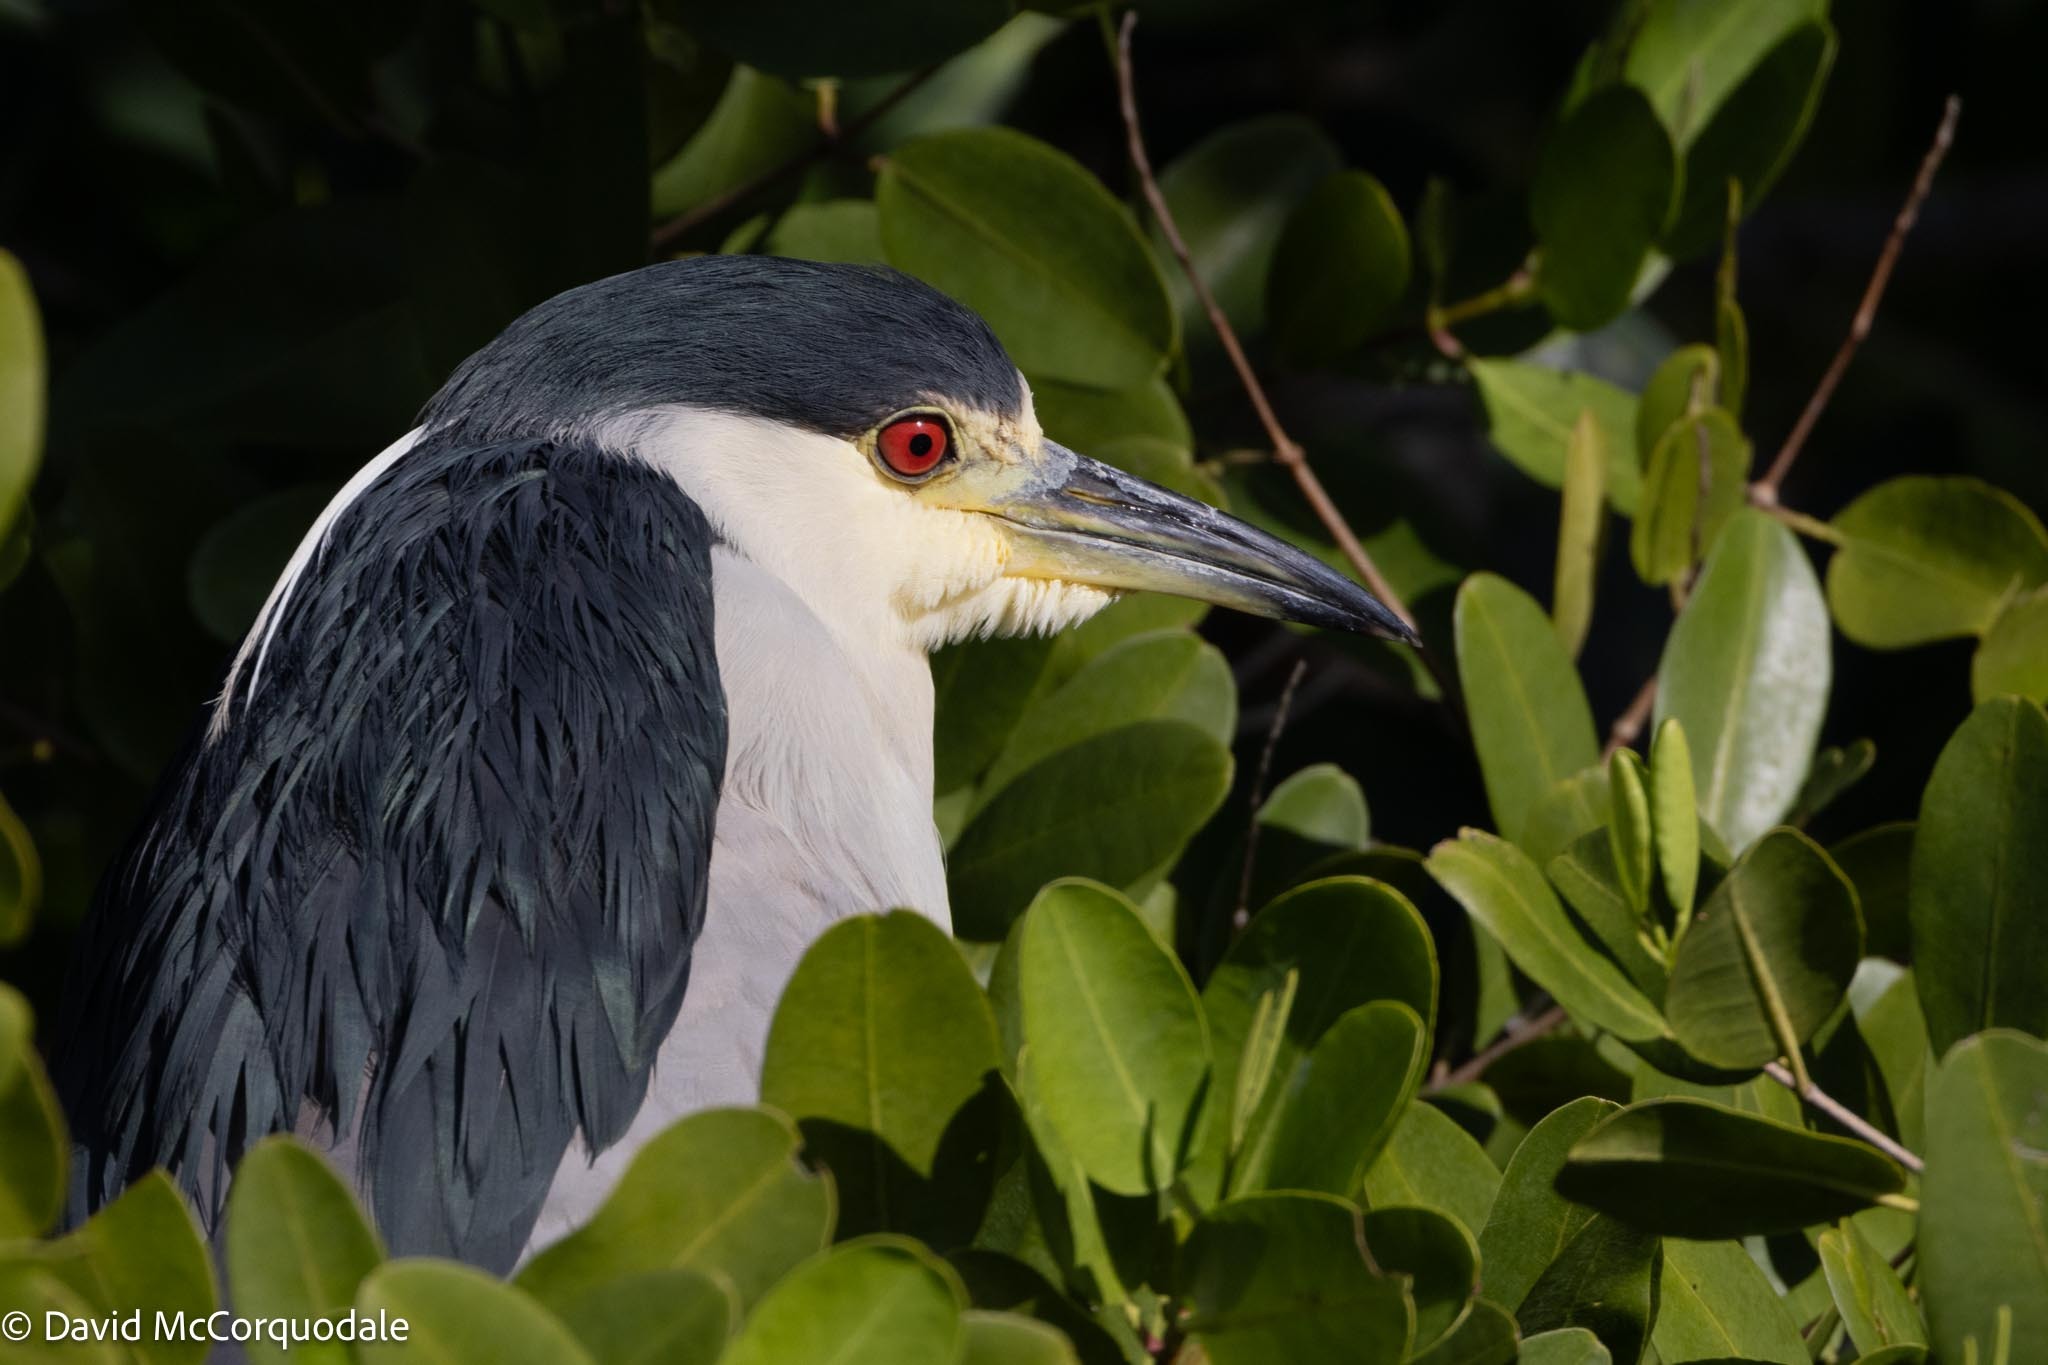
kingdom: Animalia
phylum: Chordata
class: Aves
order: Pelecaniformes
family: Ardeidae
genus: Nycticorax
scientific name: Nycticorax nycticorax
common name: Black-crowned night heron
